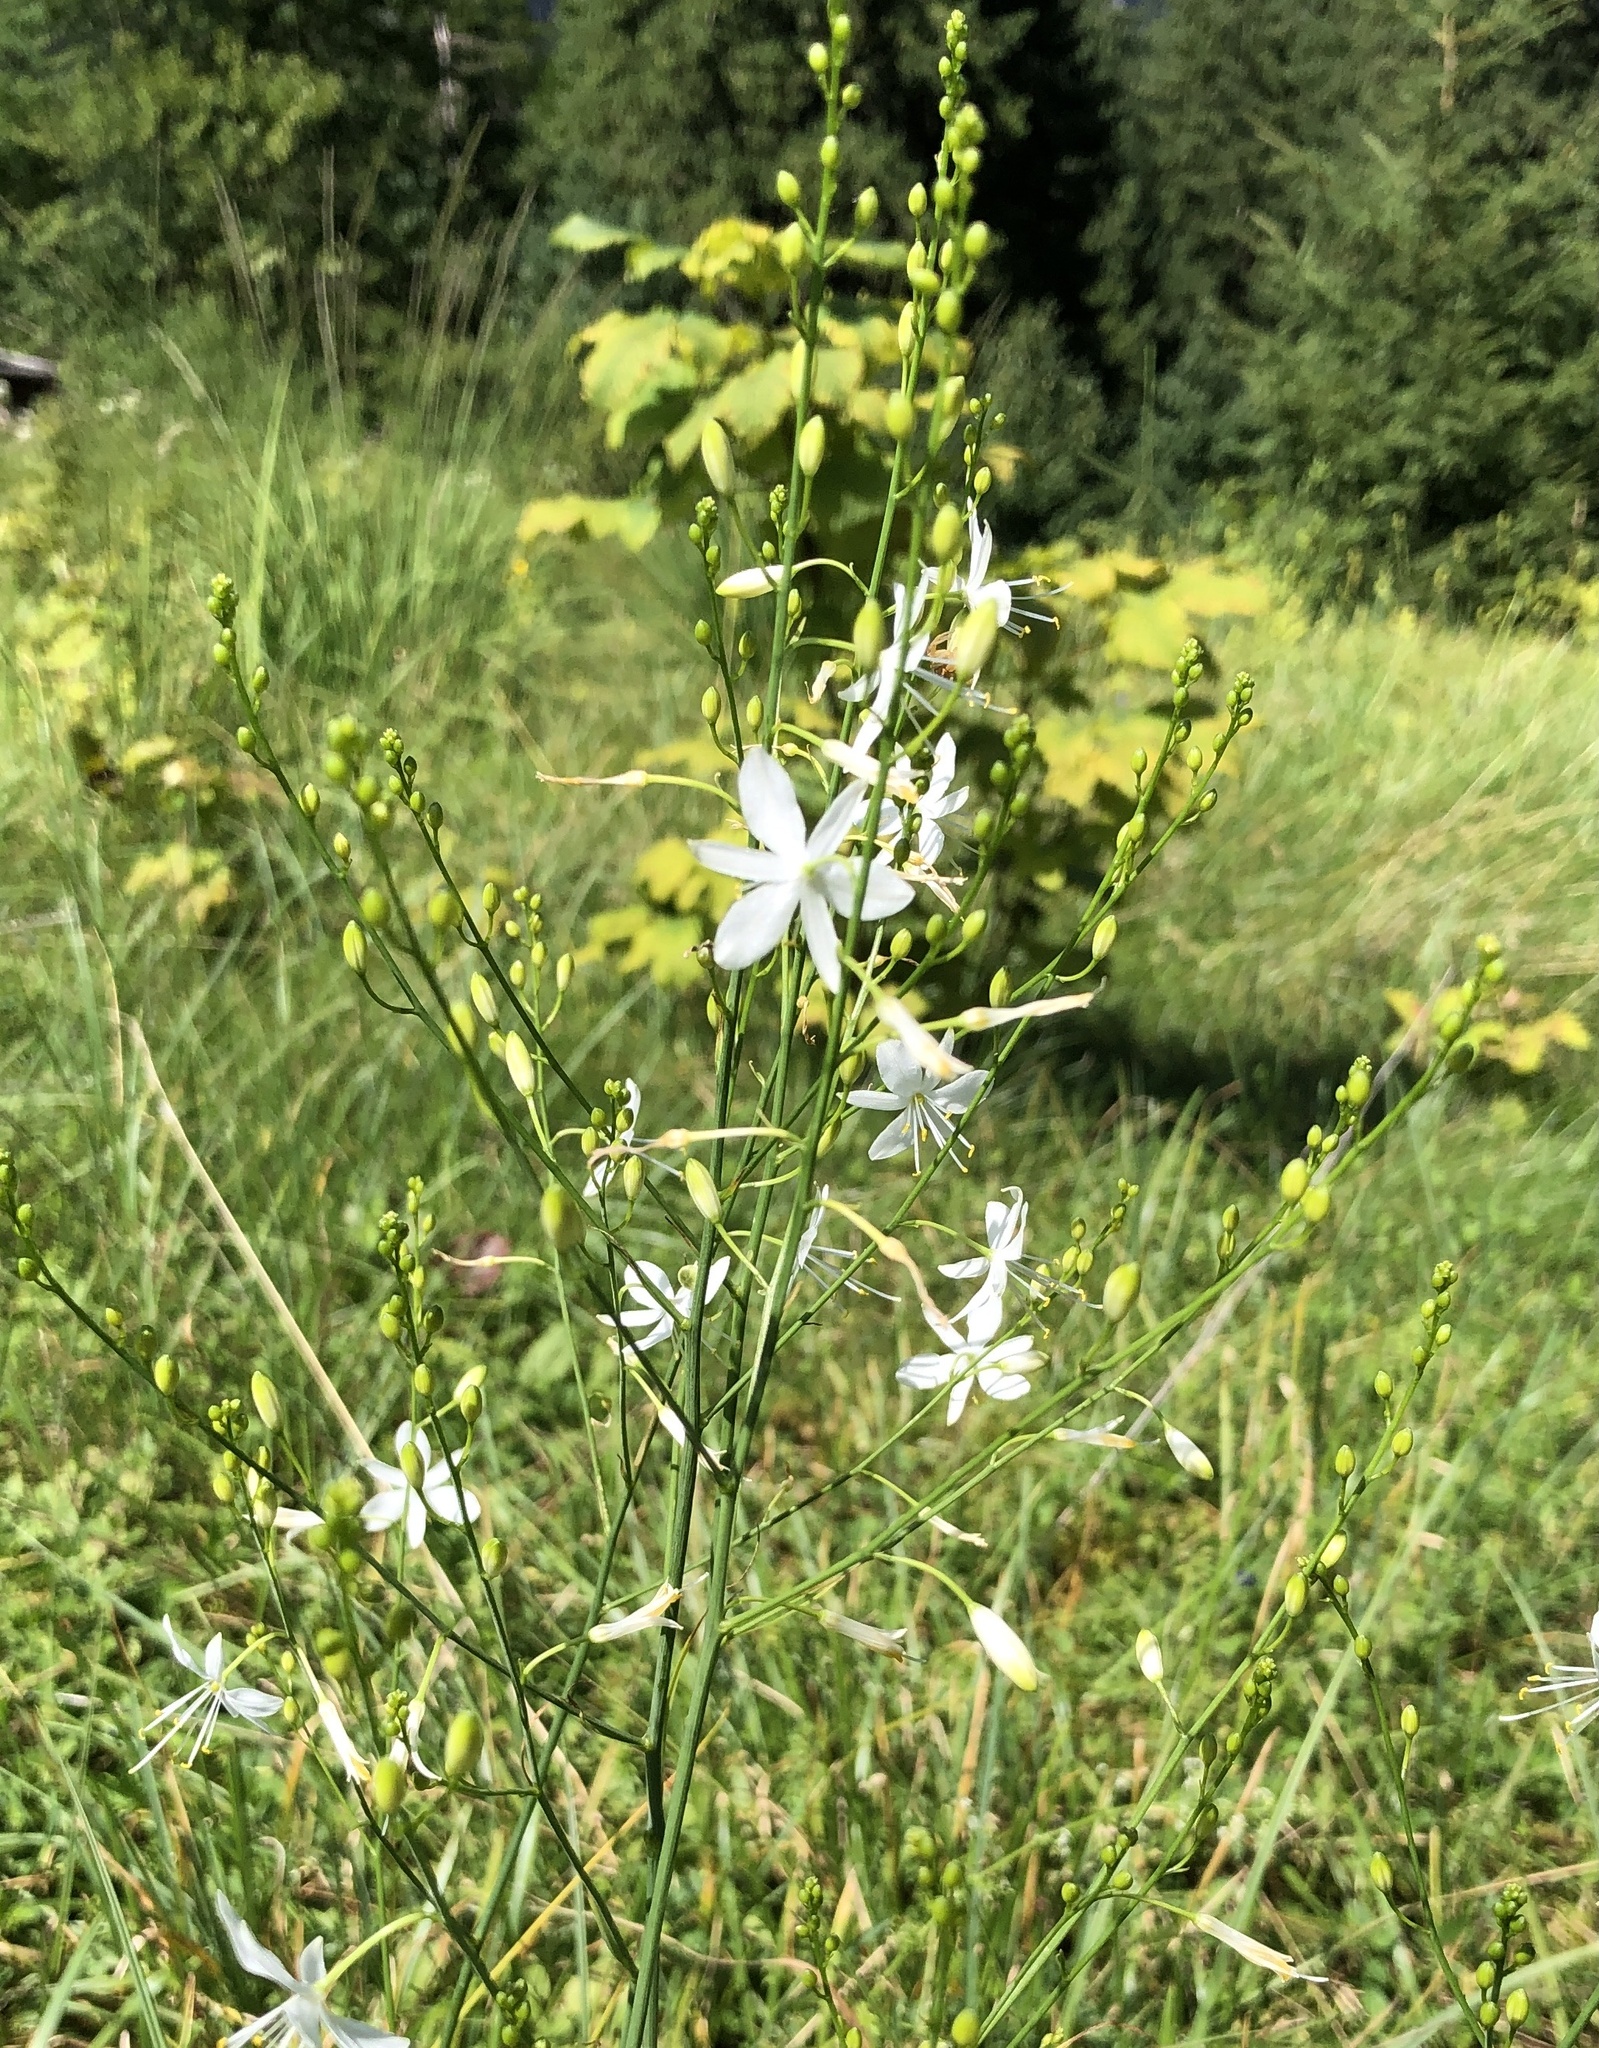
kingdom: Plantae
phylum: Tracheophyta
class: Liliopsida
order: Asparagales
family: Asparagaceae
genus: Anthericum
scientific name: Anthericum ramosum
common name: Branched st. bernard's-lily
